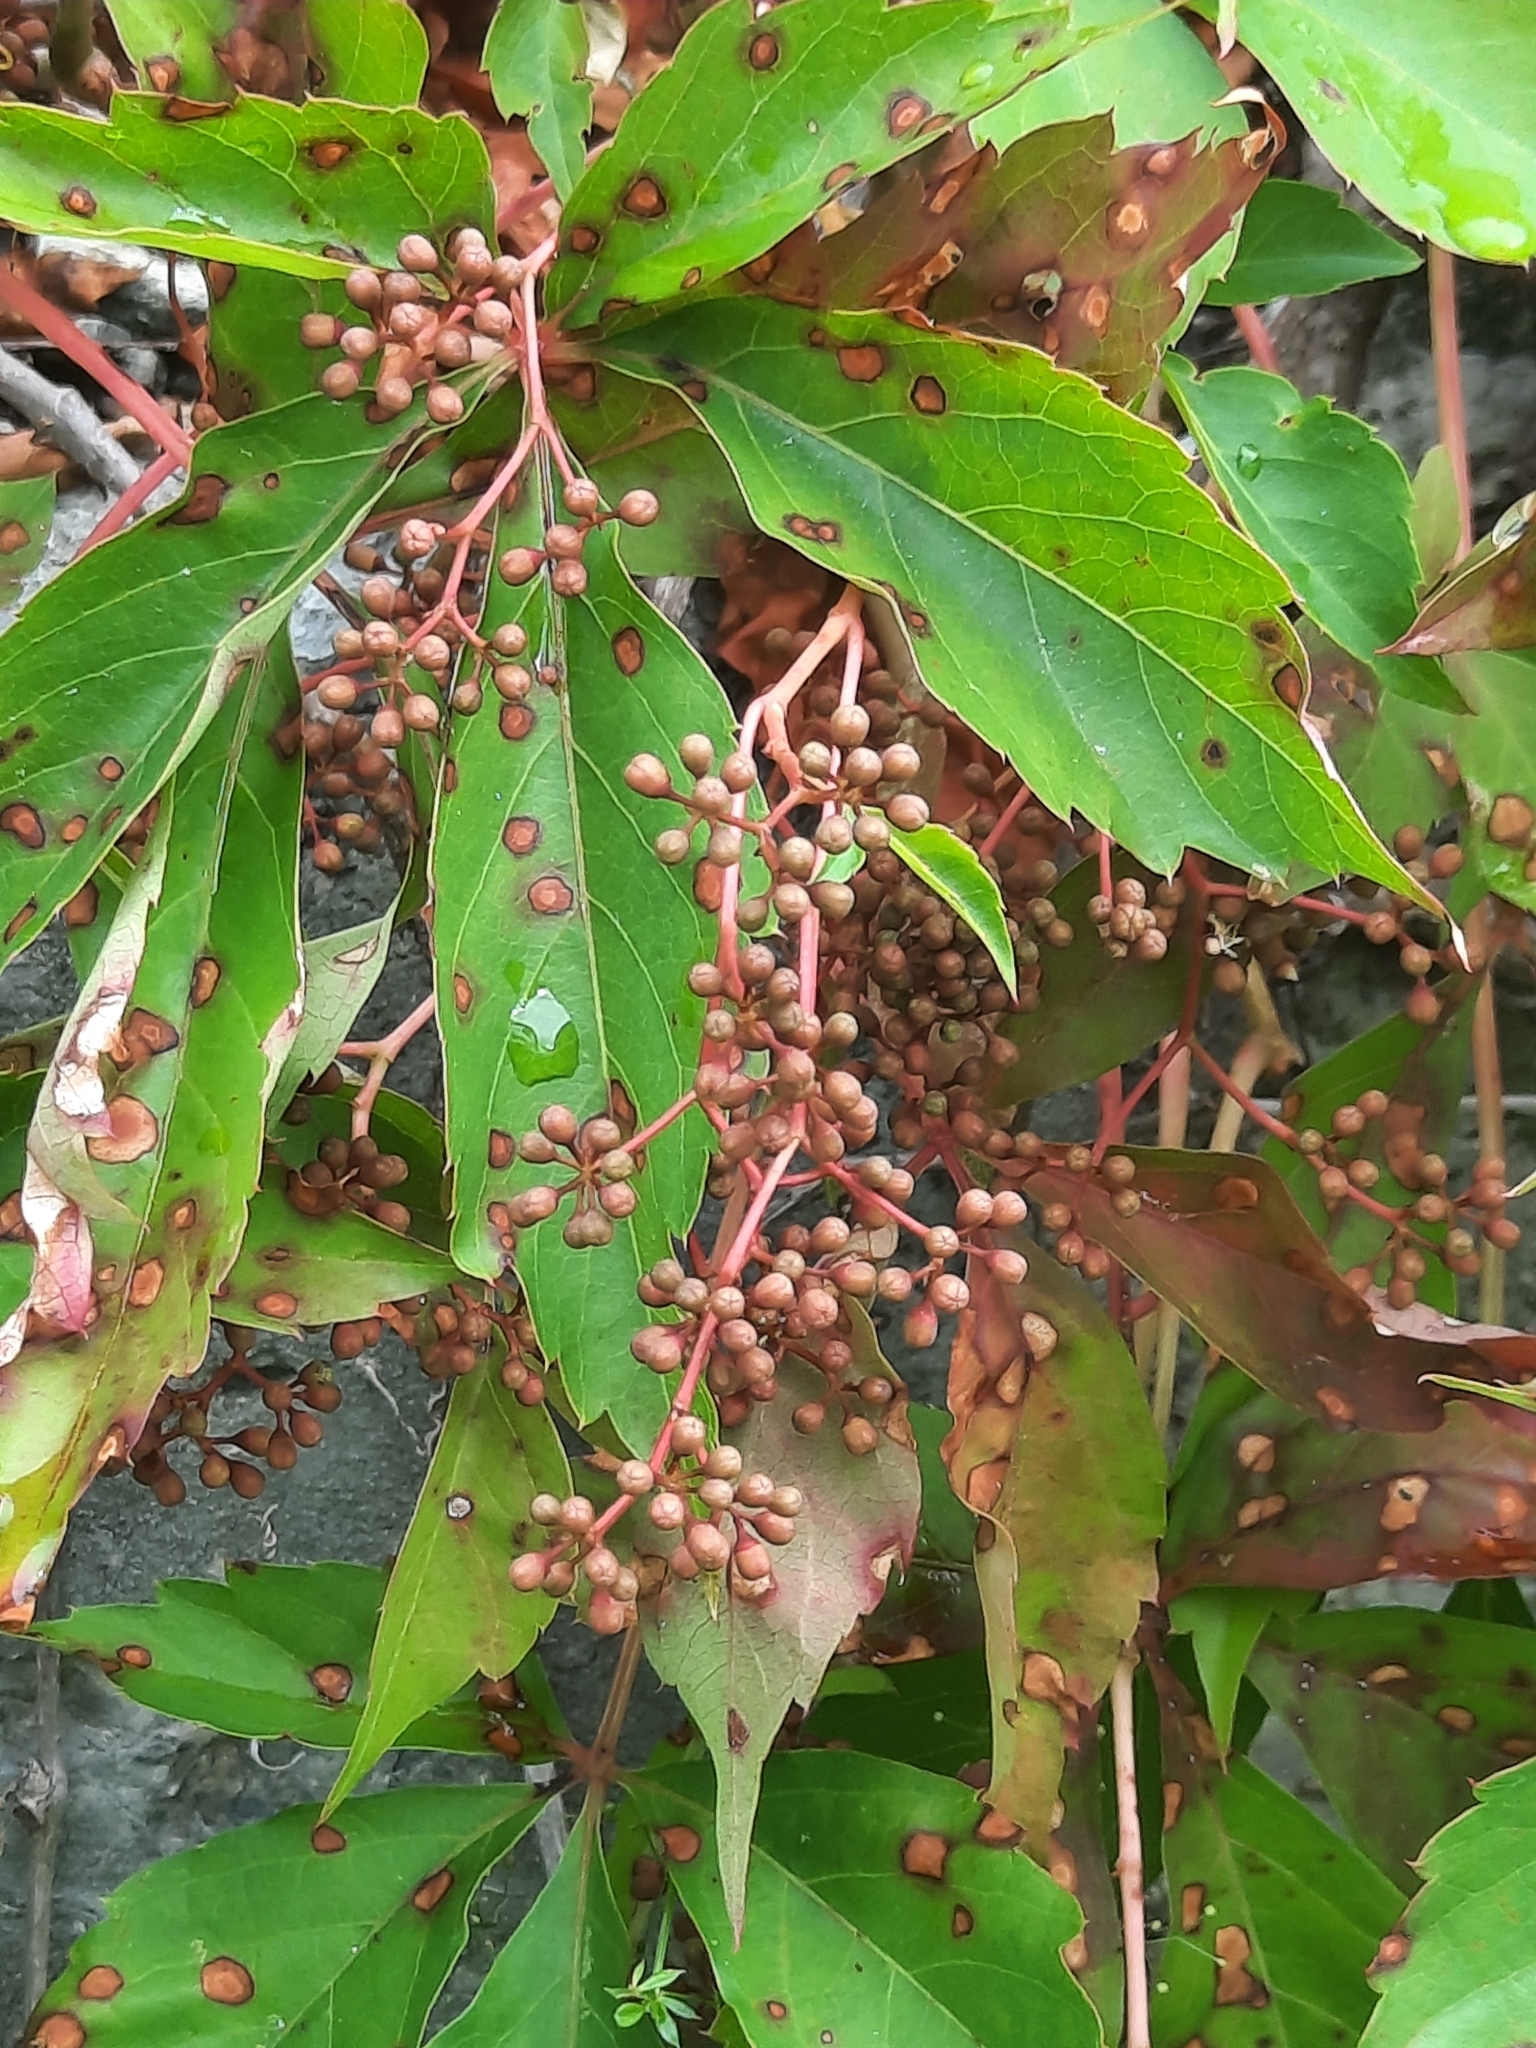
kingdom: Plantae
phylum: Tracheophyta
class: Magnoliopsida
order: Vitales
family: Vitaceae
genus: Parthenocissus
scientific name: Parthenocissus quinquefolia
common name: Virginia-creeper
